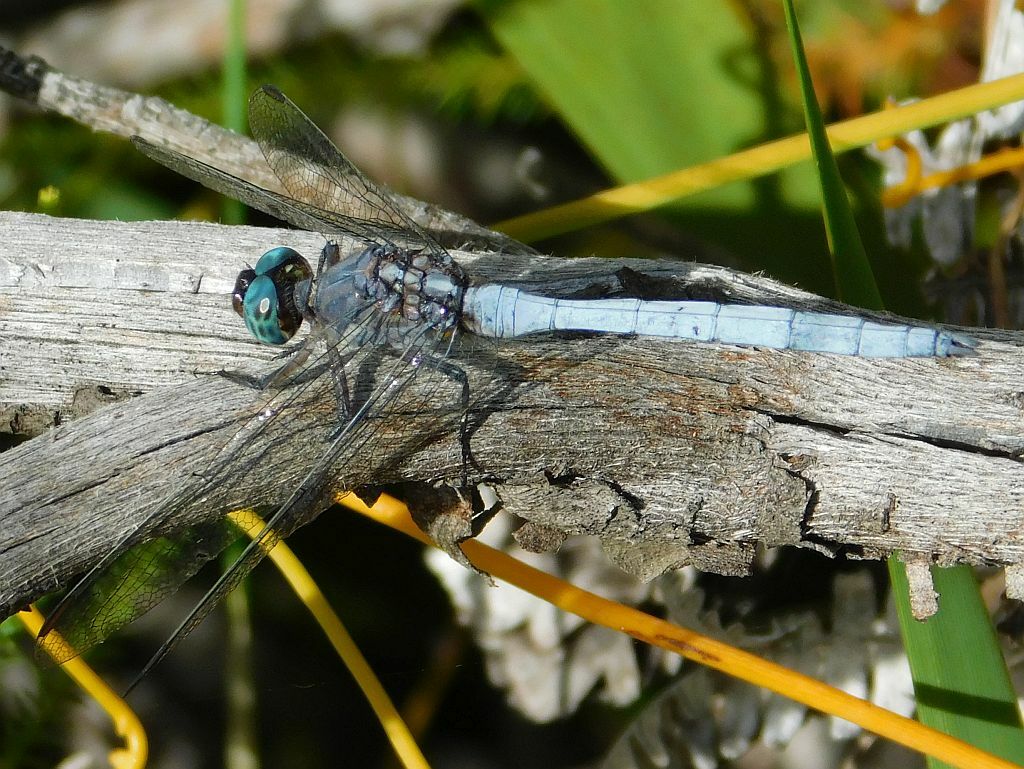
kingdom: Animalia
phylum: Arthropoda
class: Insecta
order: Odonata
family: Libellulidae
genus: Orthetrum
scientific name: Orthetrum julia
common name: Julia skimmer
